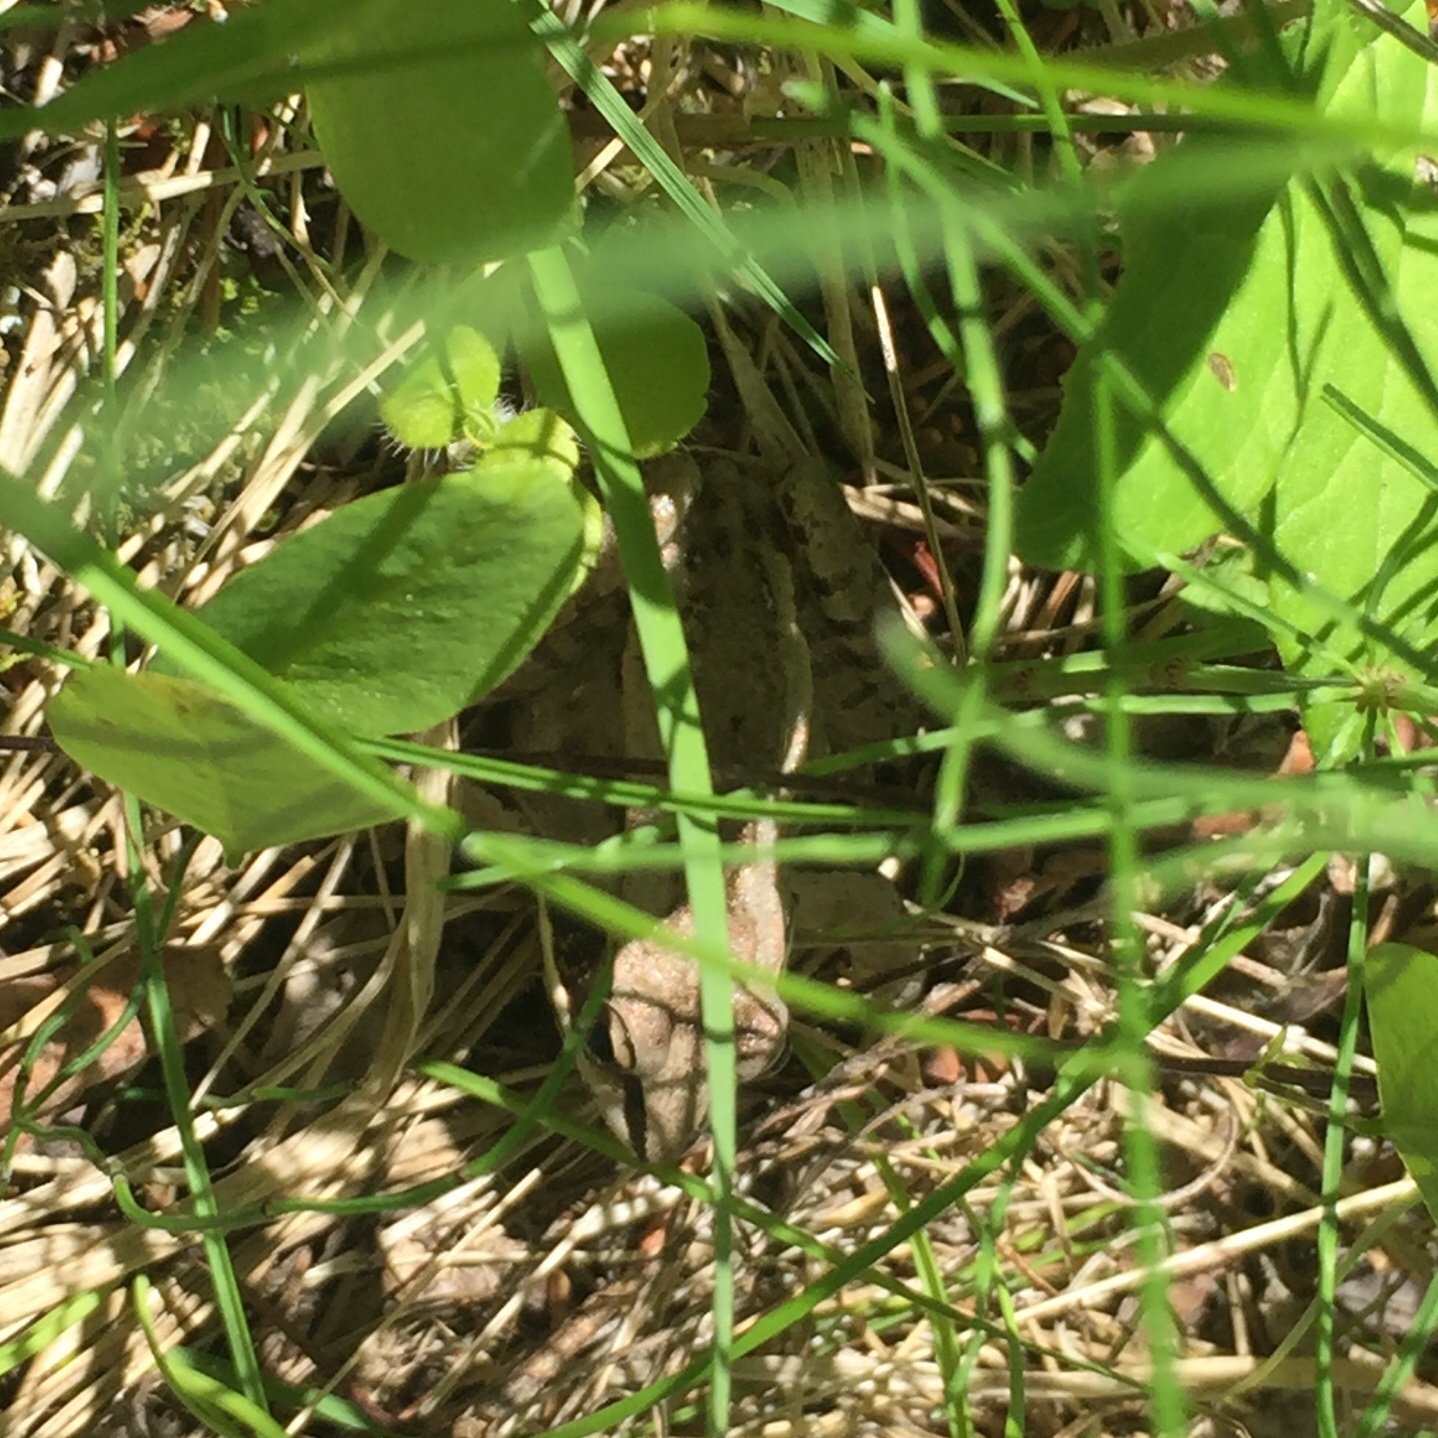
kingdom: Animalia
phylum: Chordata
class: Amphibia
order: Anura
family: Ranidae
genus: Lithobates
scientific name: Lithobates sylvaticus
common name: Wood frog
